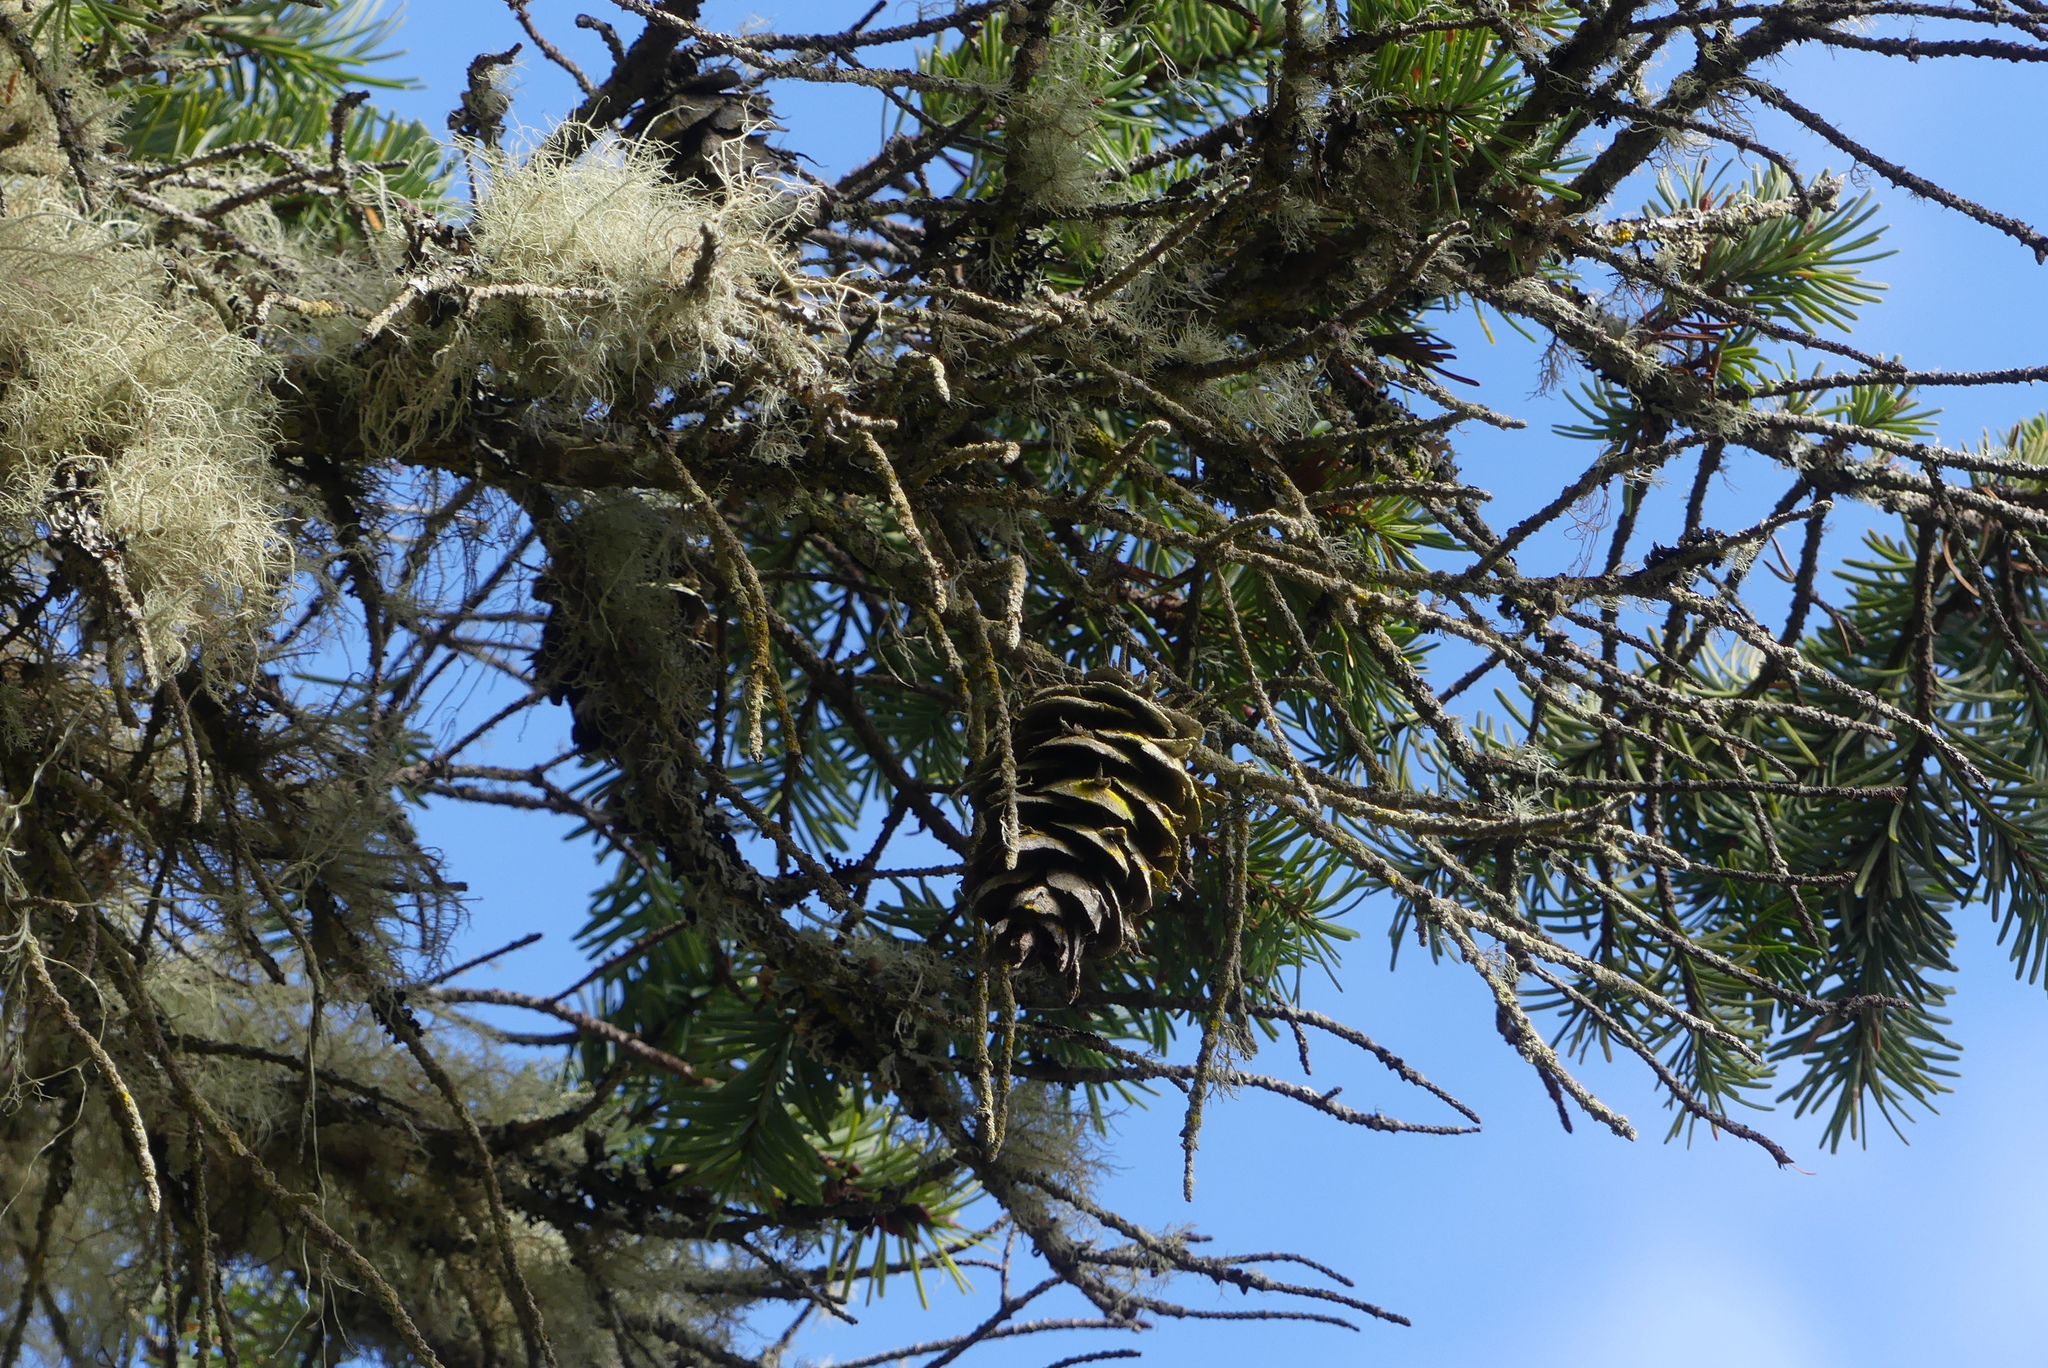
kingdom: Plantae
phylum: Tracheophyta
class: Pinopsida
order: Pinales
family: Pinaceae
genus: Pseudotsuga
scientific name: Pseudotsuga menziesii
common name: Douglas fir
